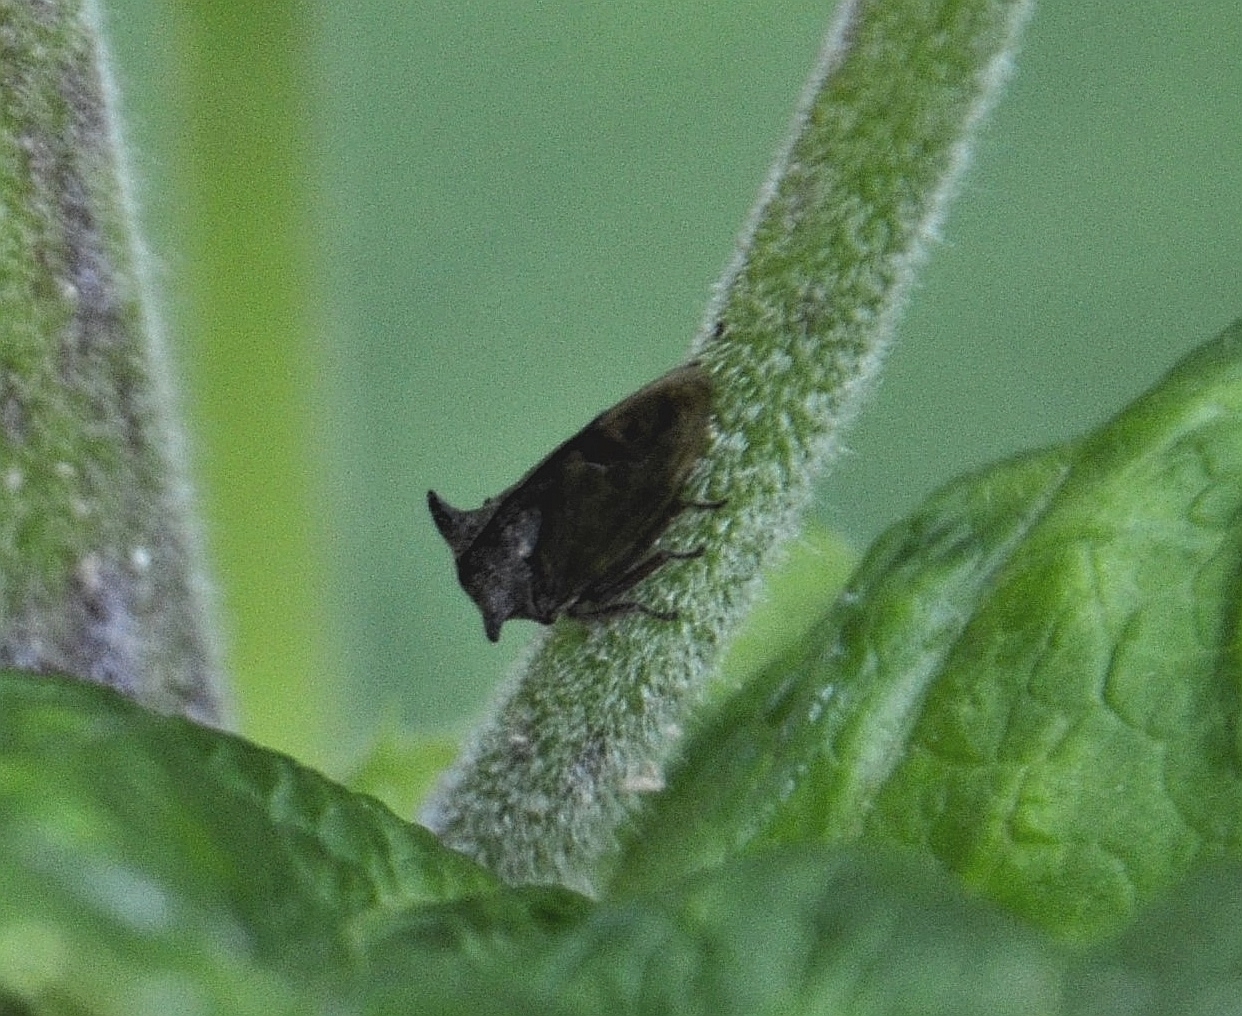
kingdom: Animalia
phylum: Arthropoda
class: Insecta
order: Hemiptera
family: Membracidae
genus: Centrotus
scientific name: Centrotus cornuta
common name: Treehopper
